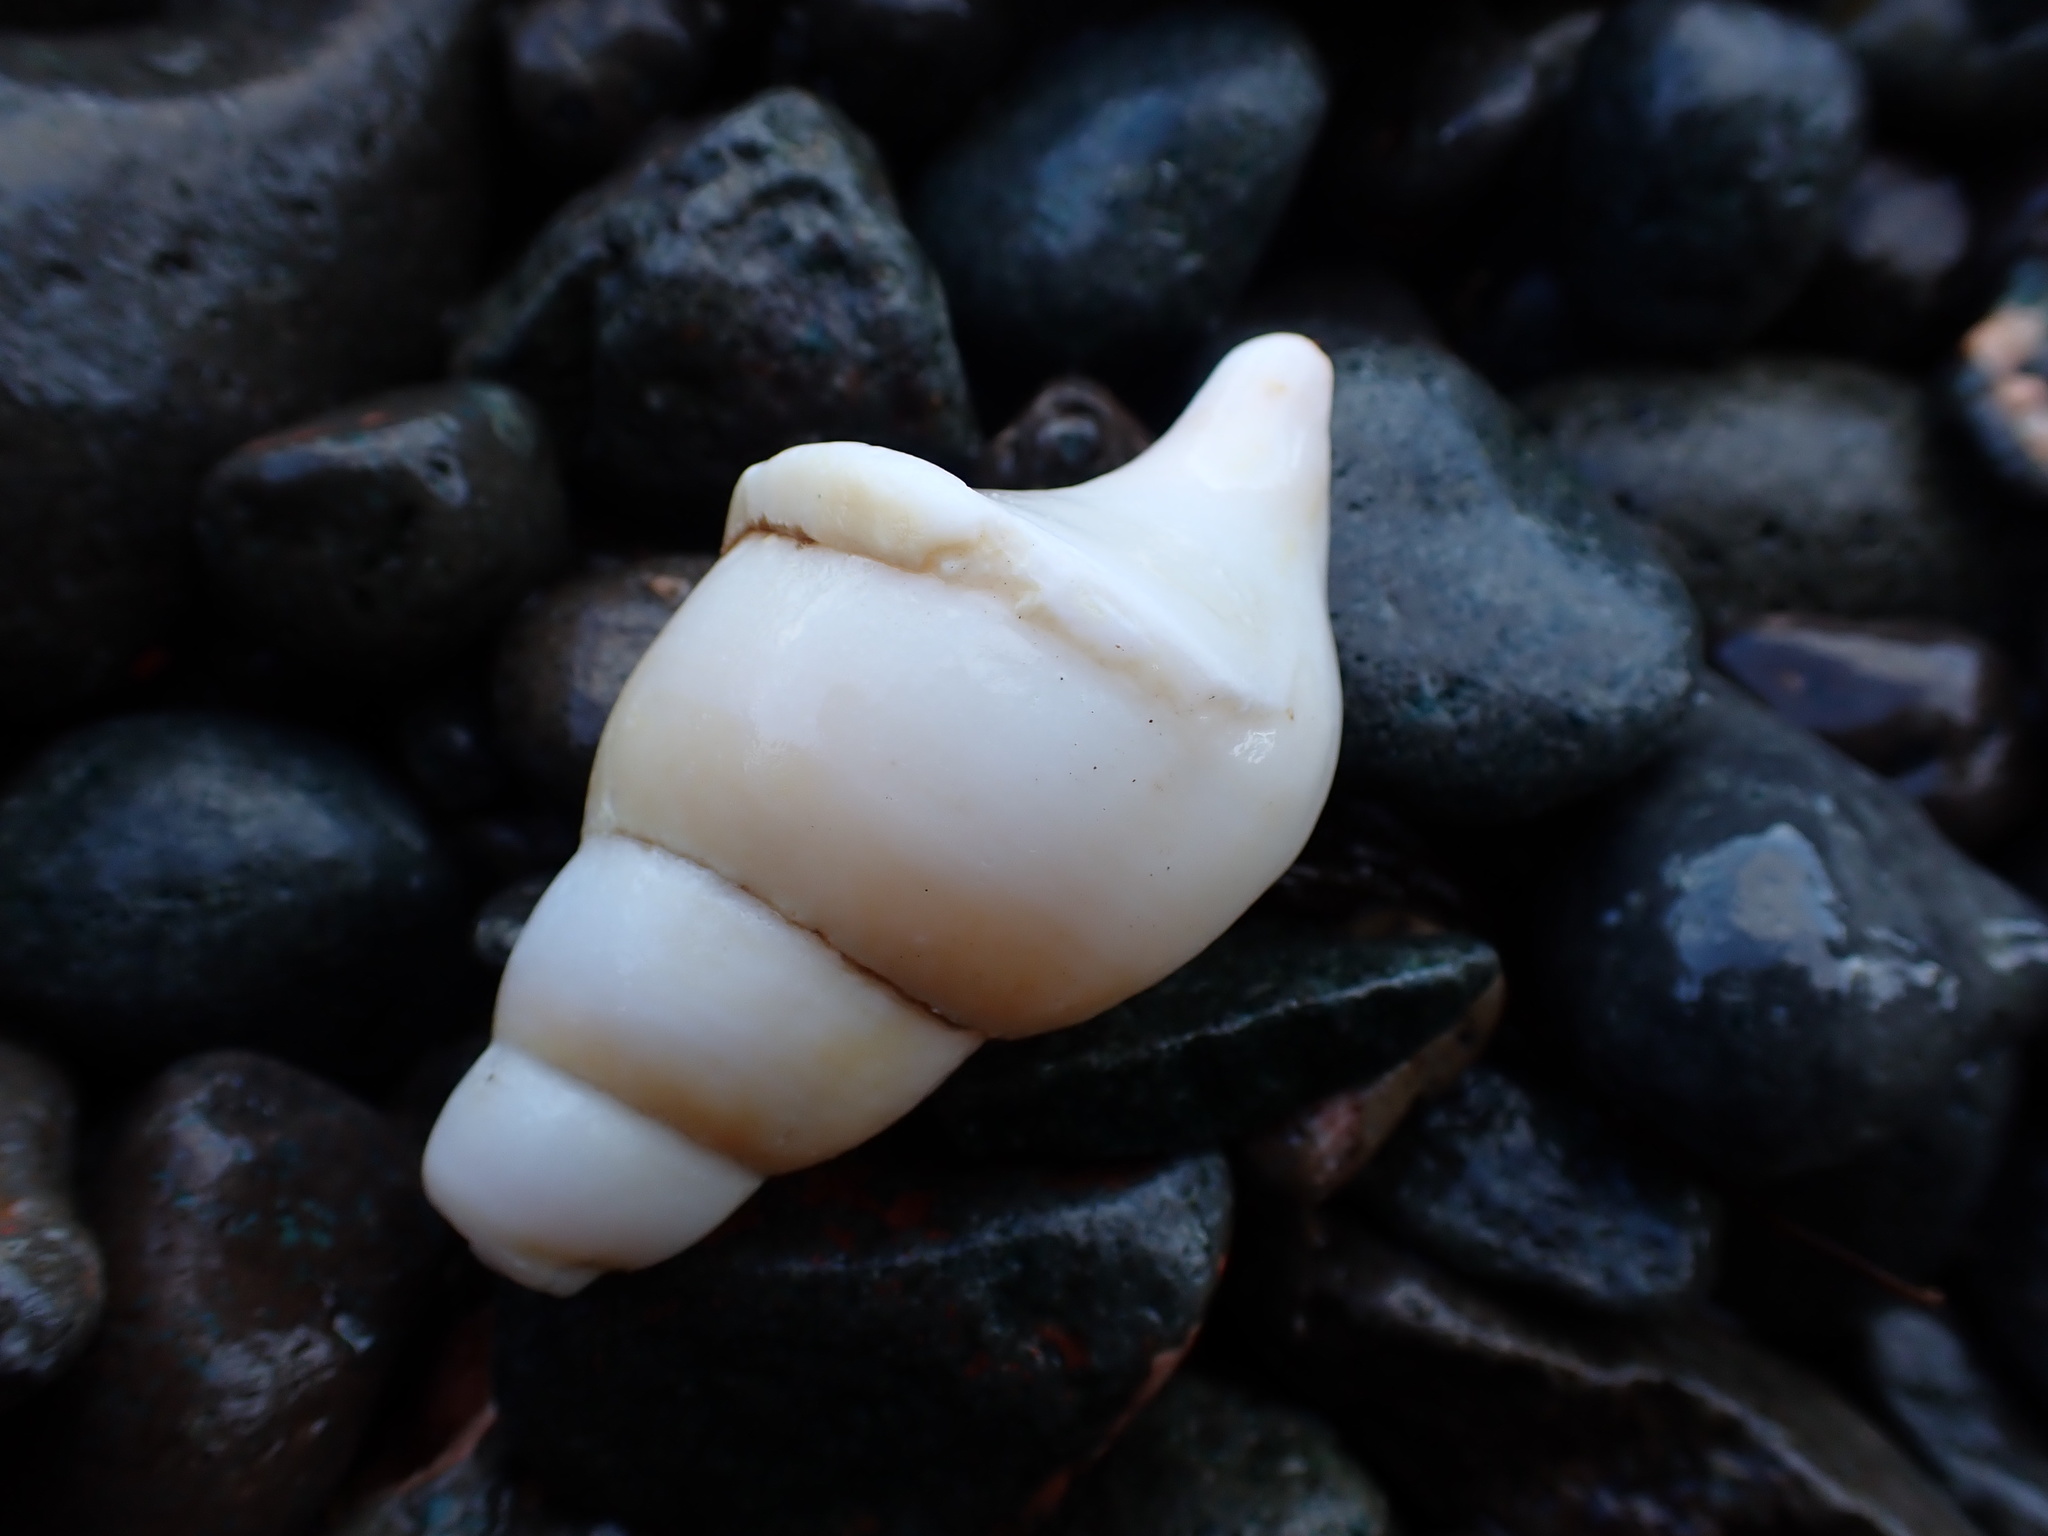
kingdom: Animalia
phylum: Mollusca
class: Gastropoda
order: Neogastropoda
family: Colidae
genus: Colus
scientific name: Colus stimpsoni
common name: Stimpson's colus
